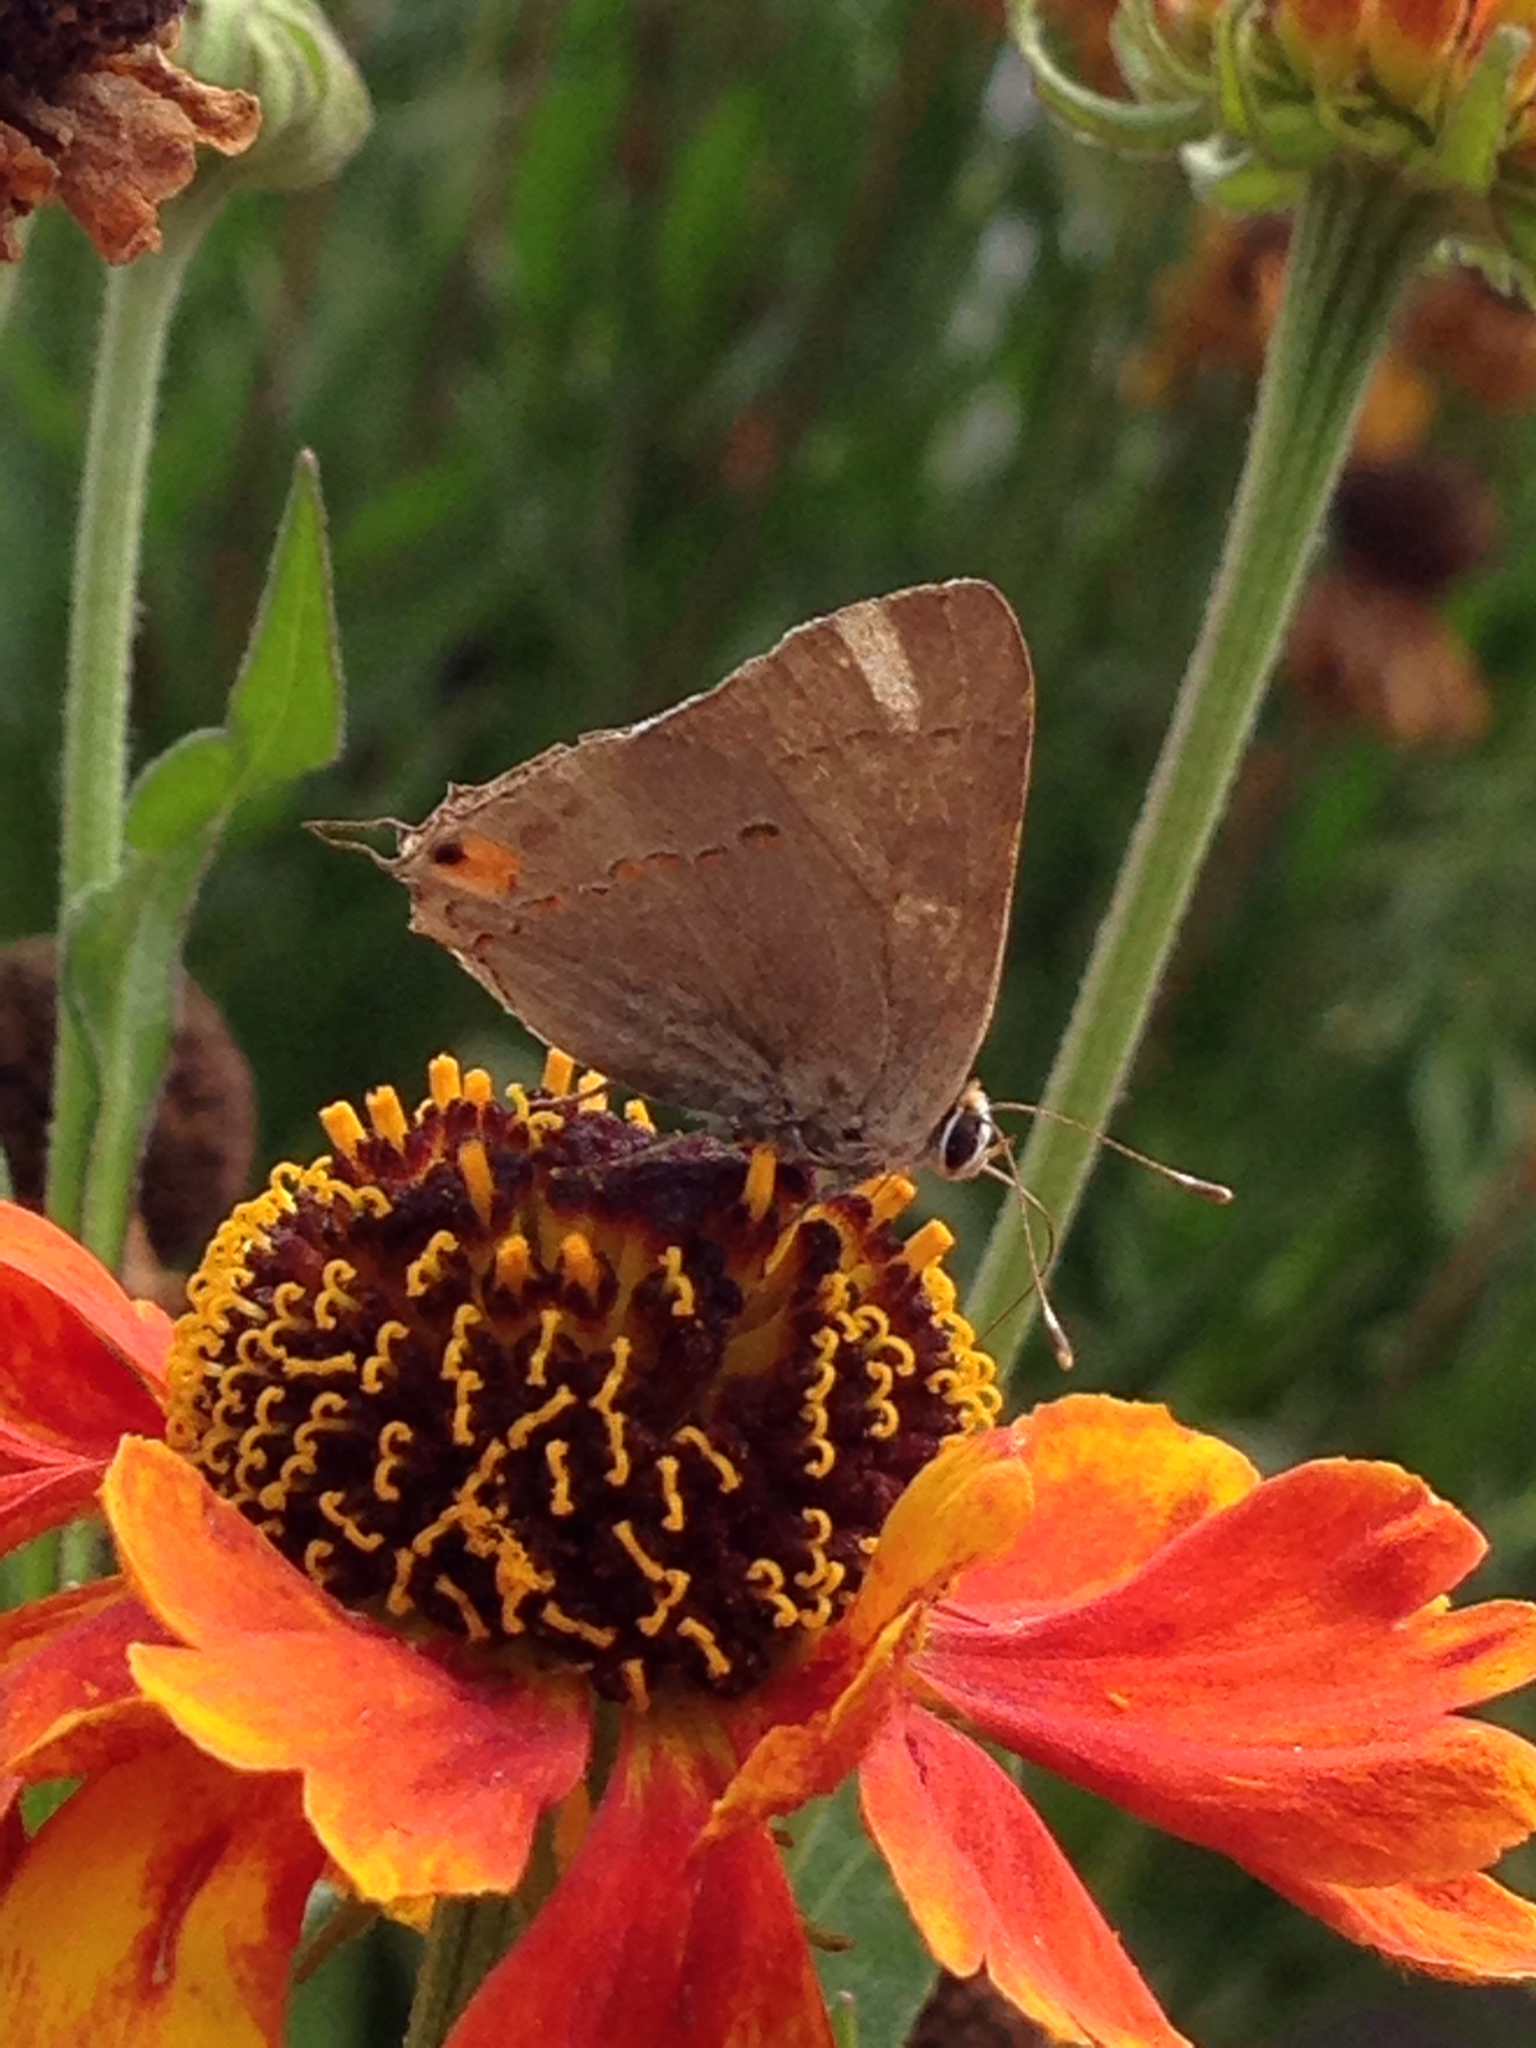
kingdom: Animalia
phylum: Arthropoda
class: Insecta
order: Lepidoptera
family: Lycaenidae
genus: Strymon
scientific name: Strymon melinus
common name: Gray hairstreak
